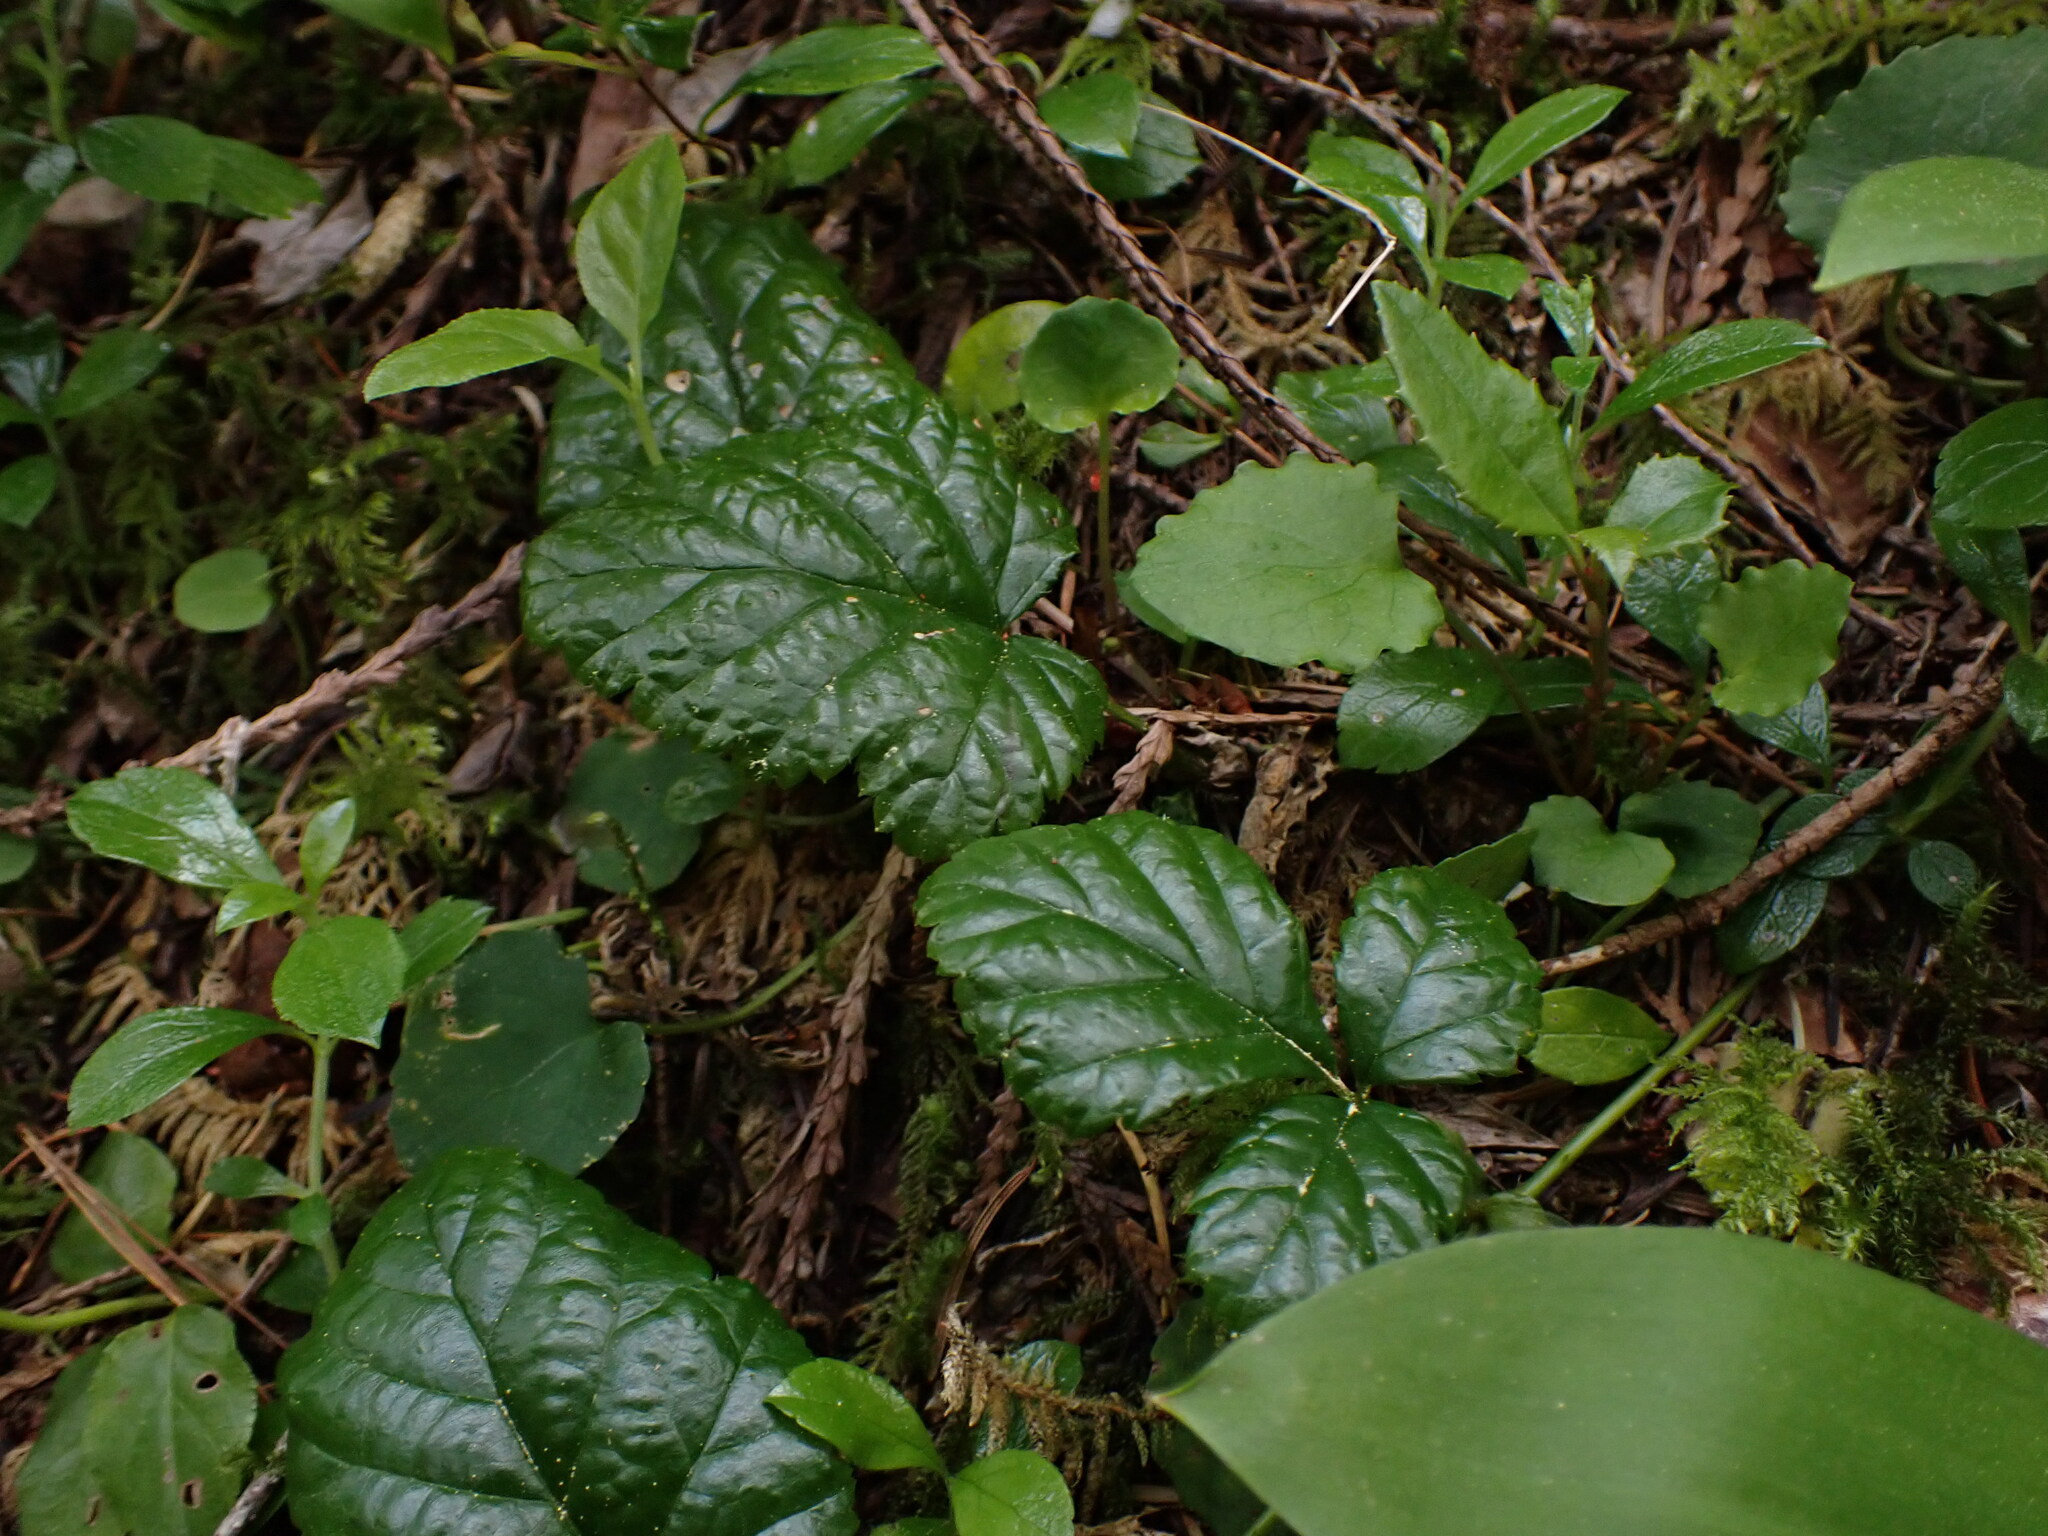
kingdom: Plantae
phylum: Tracheophyta
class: Magnoliopsida
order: Rosales
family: Rosaceae
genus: Rubus
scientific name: Rubus nivalis
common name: Dwarf snow bramble
